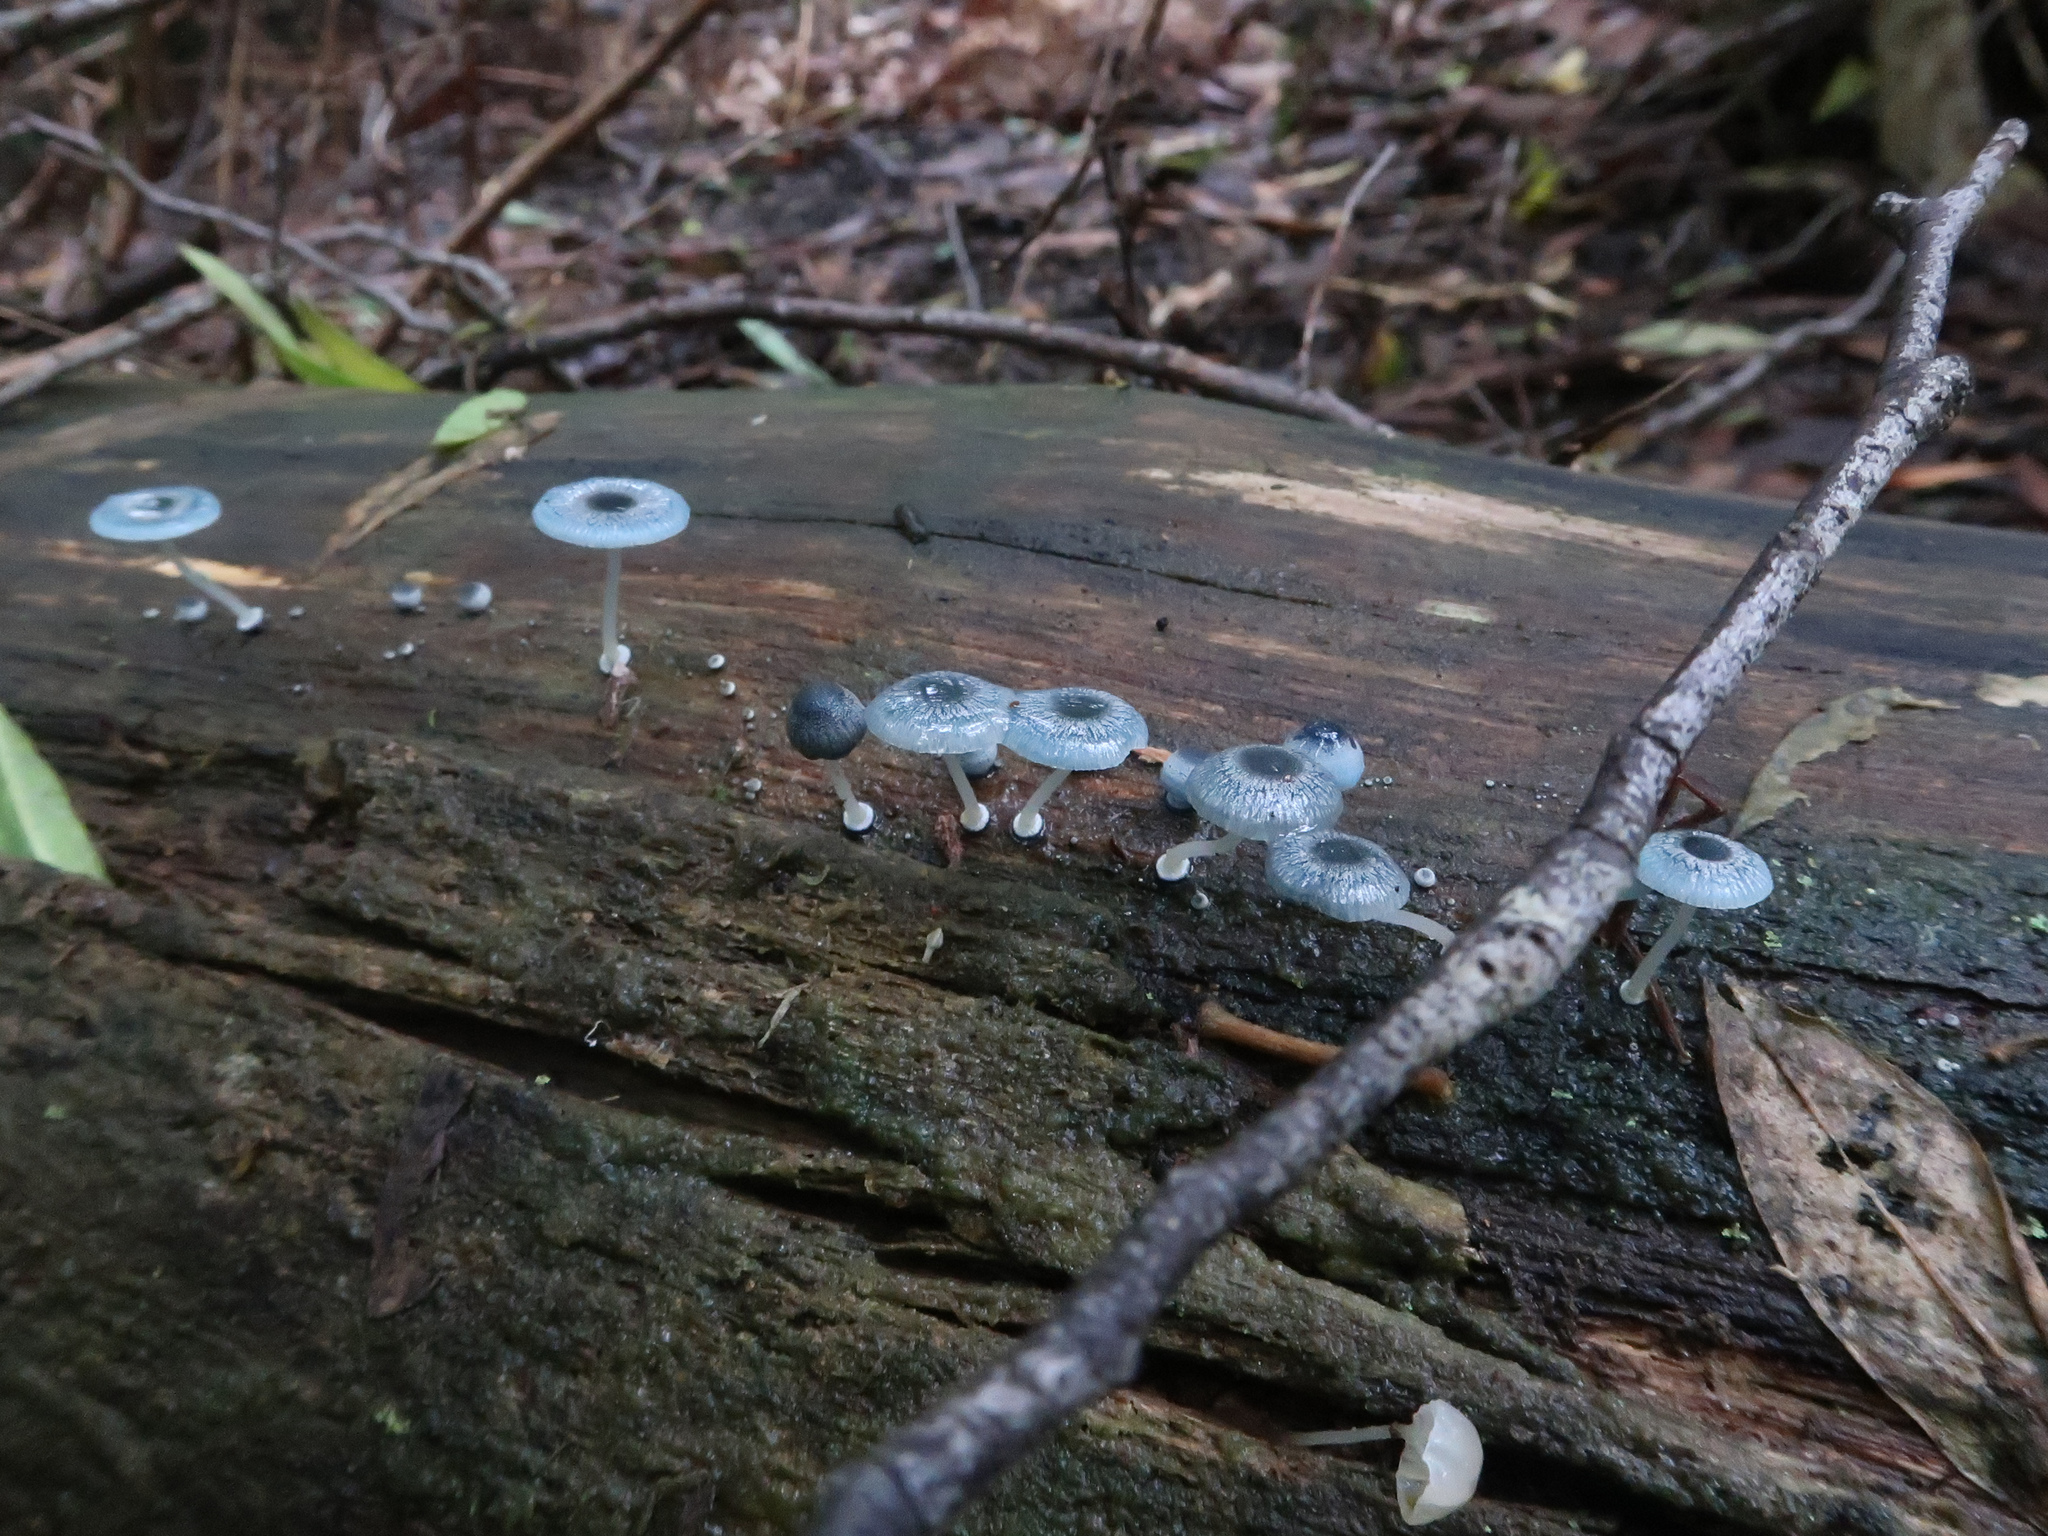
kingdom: Fungi
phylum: Basidiomycota
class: Agaricomycetes
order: Agaricales
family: Mycenaceae
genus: Mycena
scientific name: Mycena interrupta
